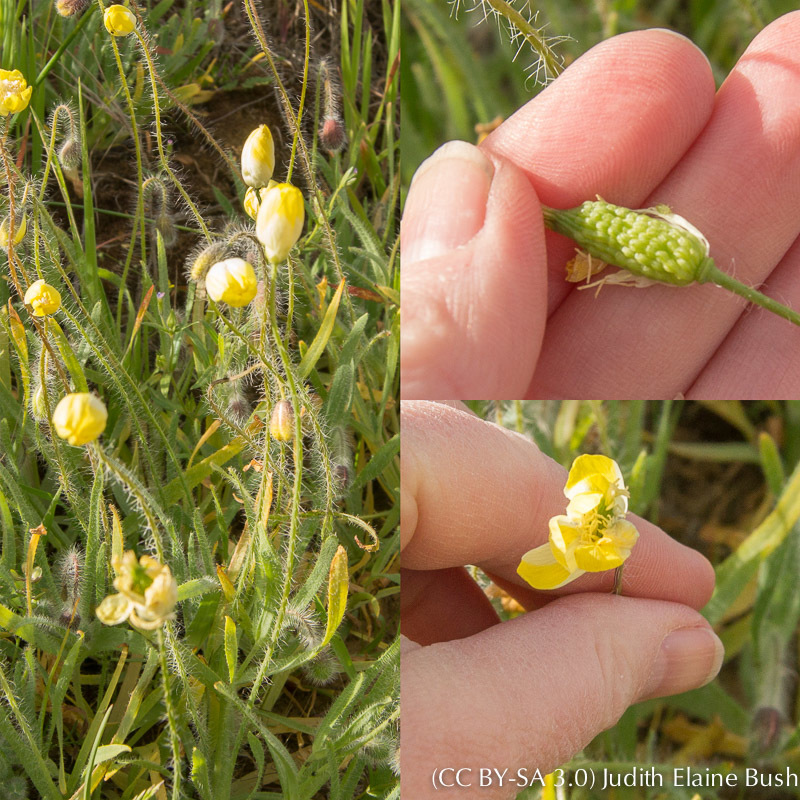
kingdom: Plantae
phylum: Tracheophyta
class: Magnoliopsida
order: Ranunculales
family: Papaveraceae
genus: Platystemon
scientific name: Platystemon californicus
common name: Cream-cups
